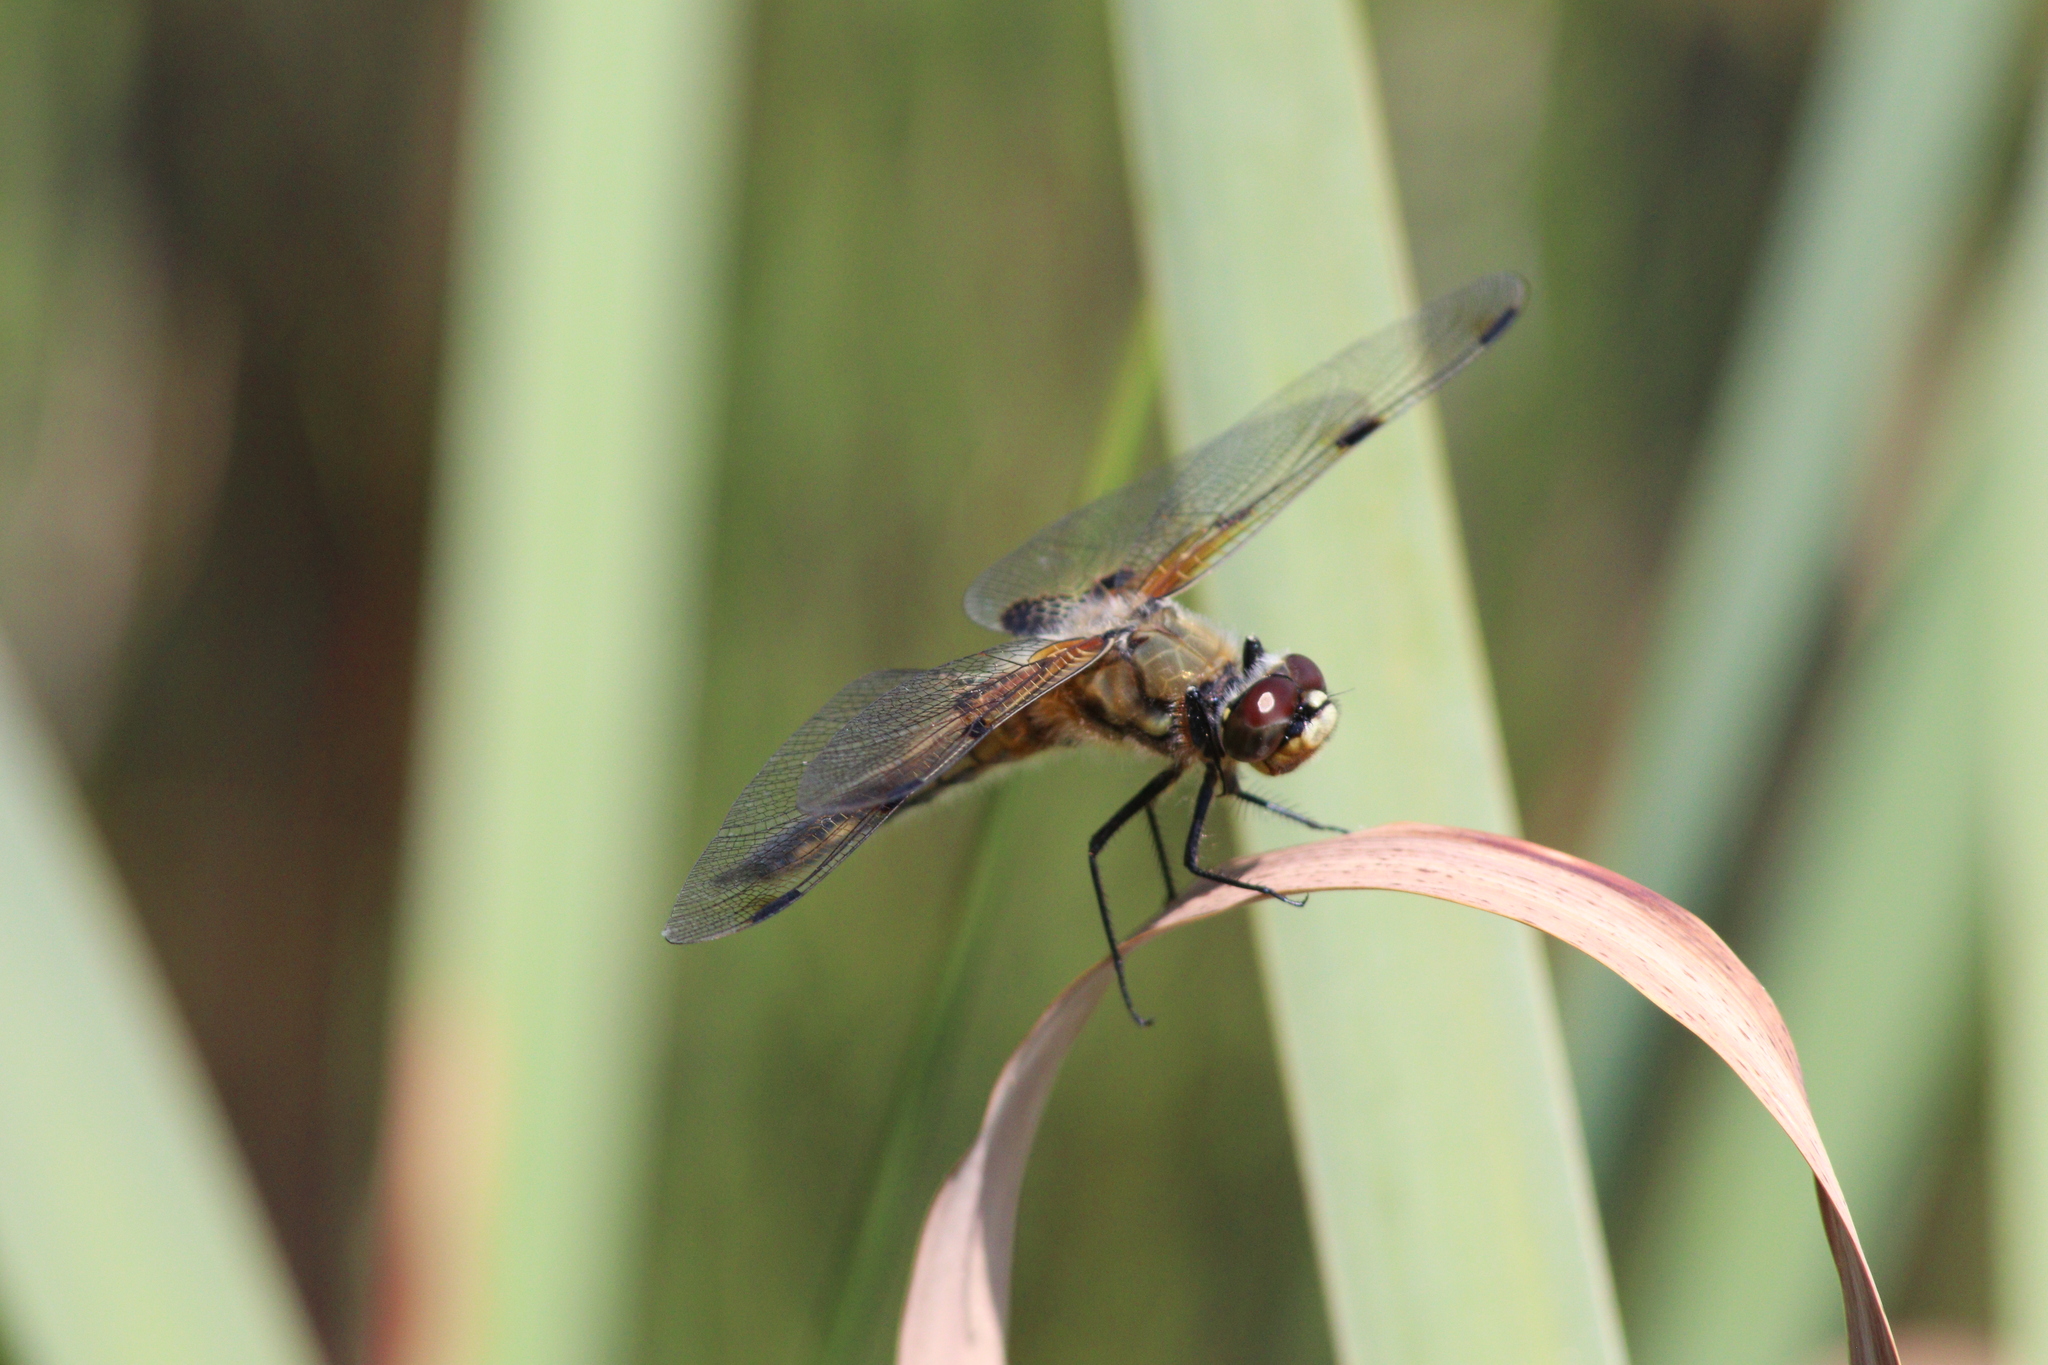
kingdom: Animalia
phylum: Arthropoda
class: Insecta
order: Odonata
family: Libellulidae
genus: Libellula
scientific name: Libellula quadrimaculata
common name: Four-spotted chaser
